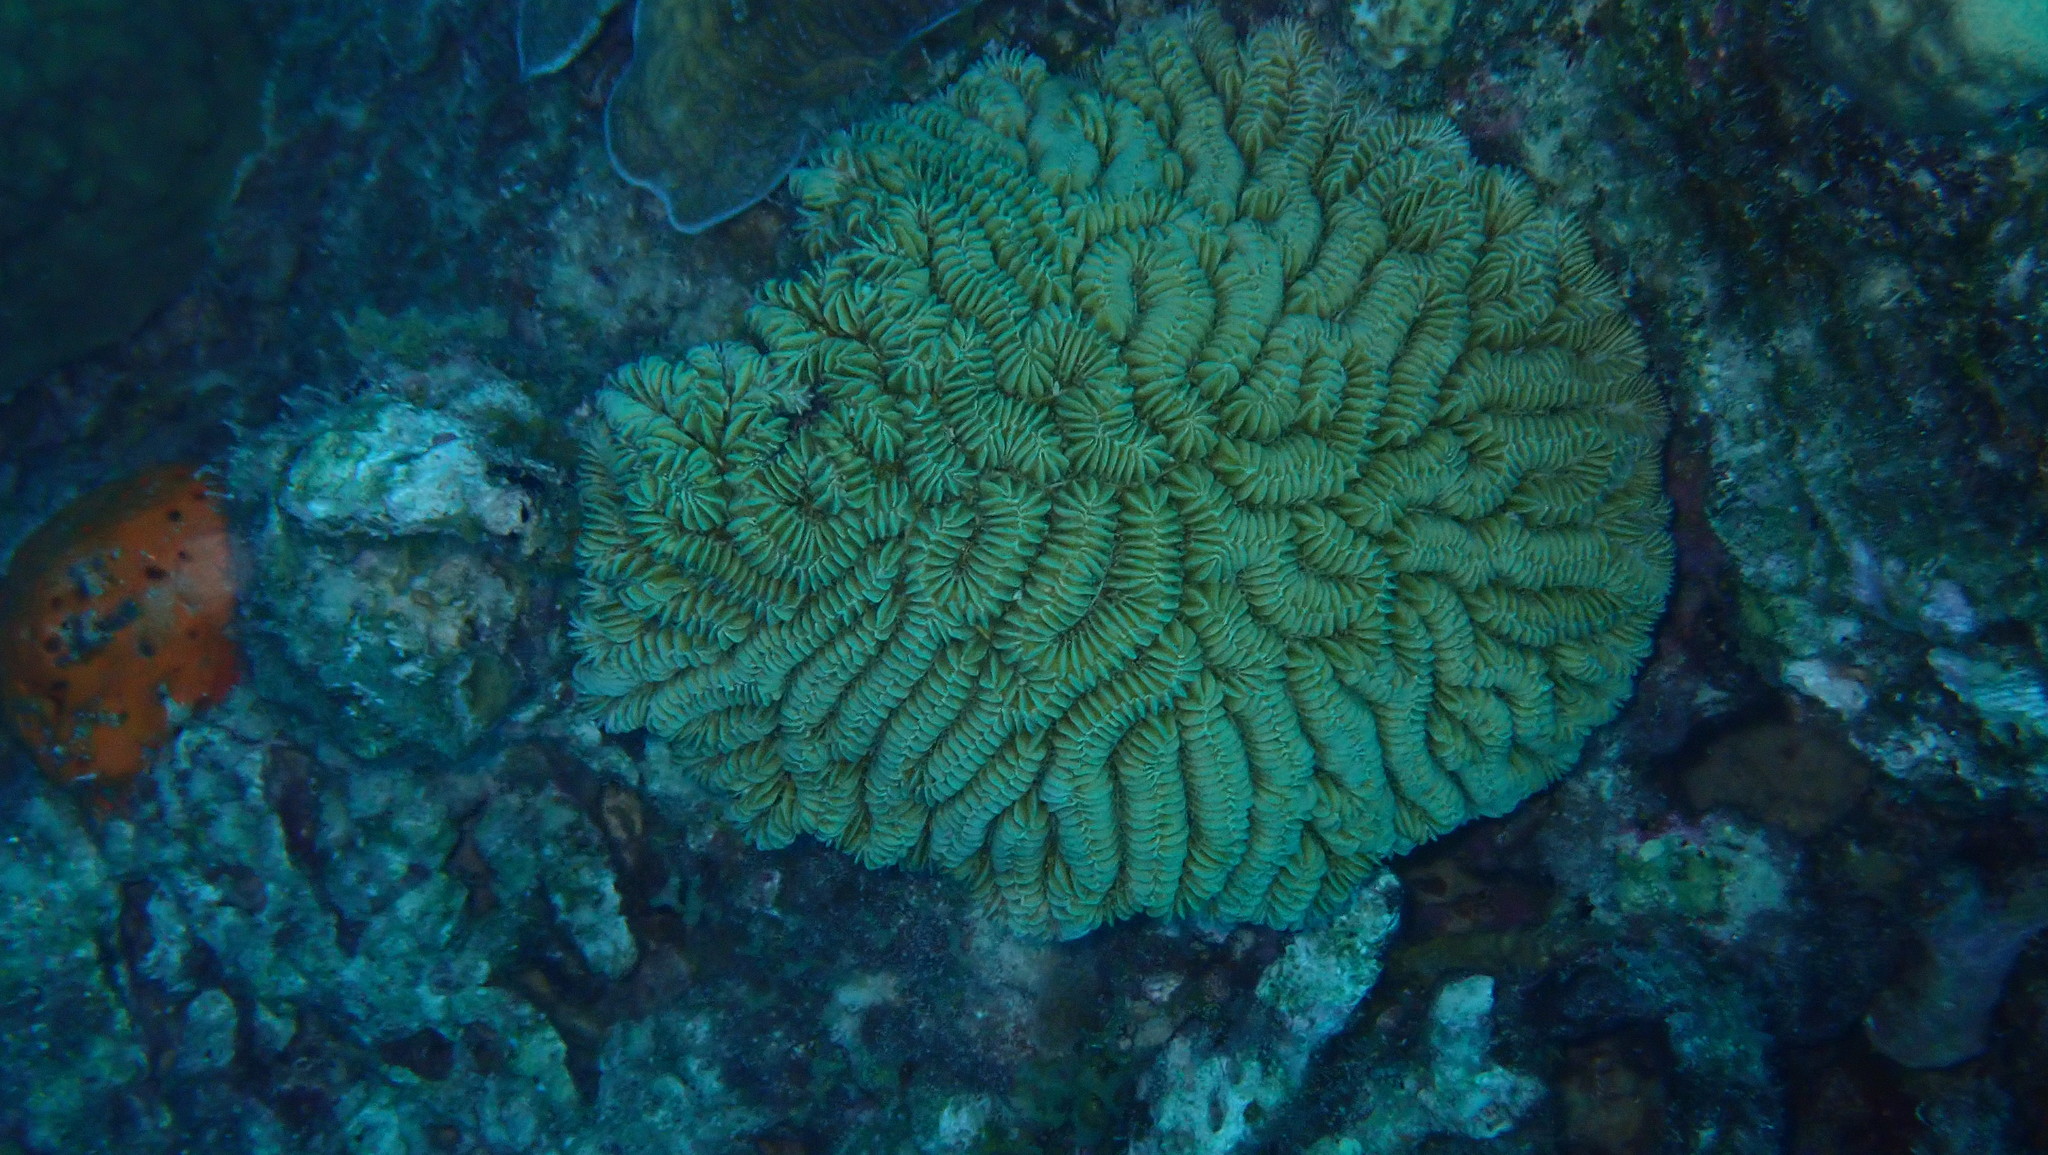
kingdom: Animalia
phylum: Cnidaria
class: Anthozoa
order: Scleractinia
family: Meandrinidae
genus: Meandrina
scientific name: Meandrina meandrites
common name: Maze coral
